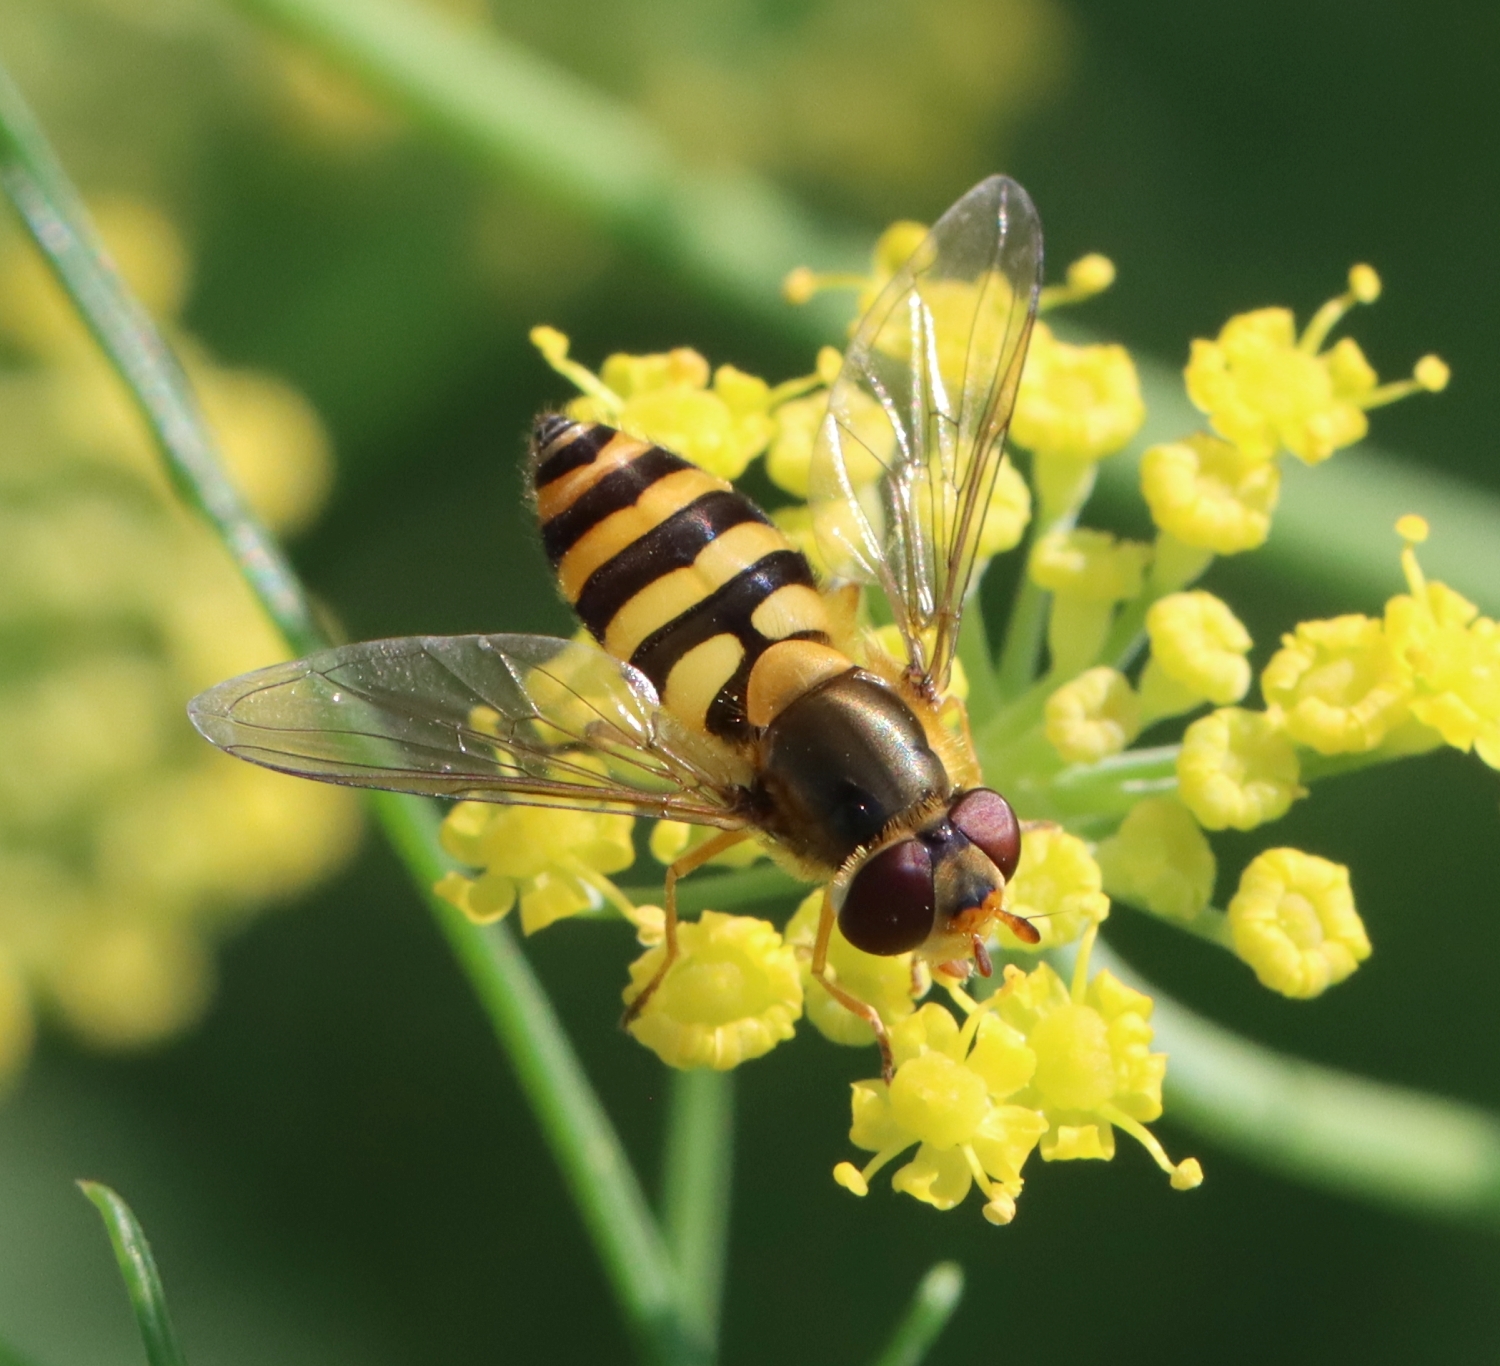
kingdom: Animalia
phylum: Arthropoda
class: Insecta
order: Diptera
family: Syrphidae
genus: Syrphus
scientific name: Syrphus ribesii
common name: Common flower fly
